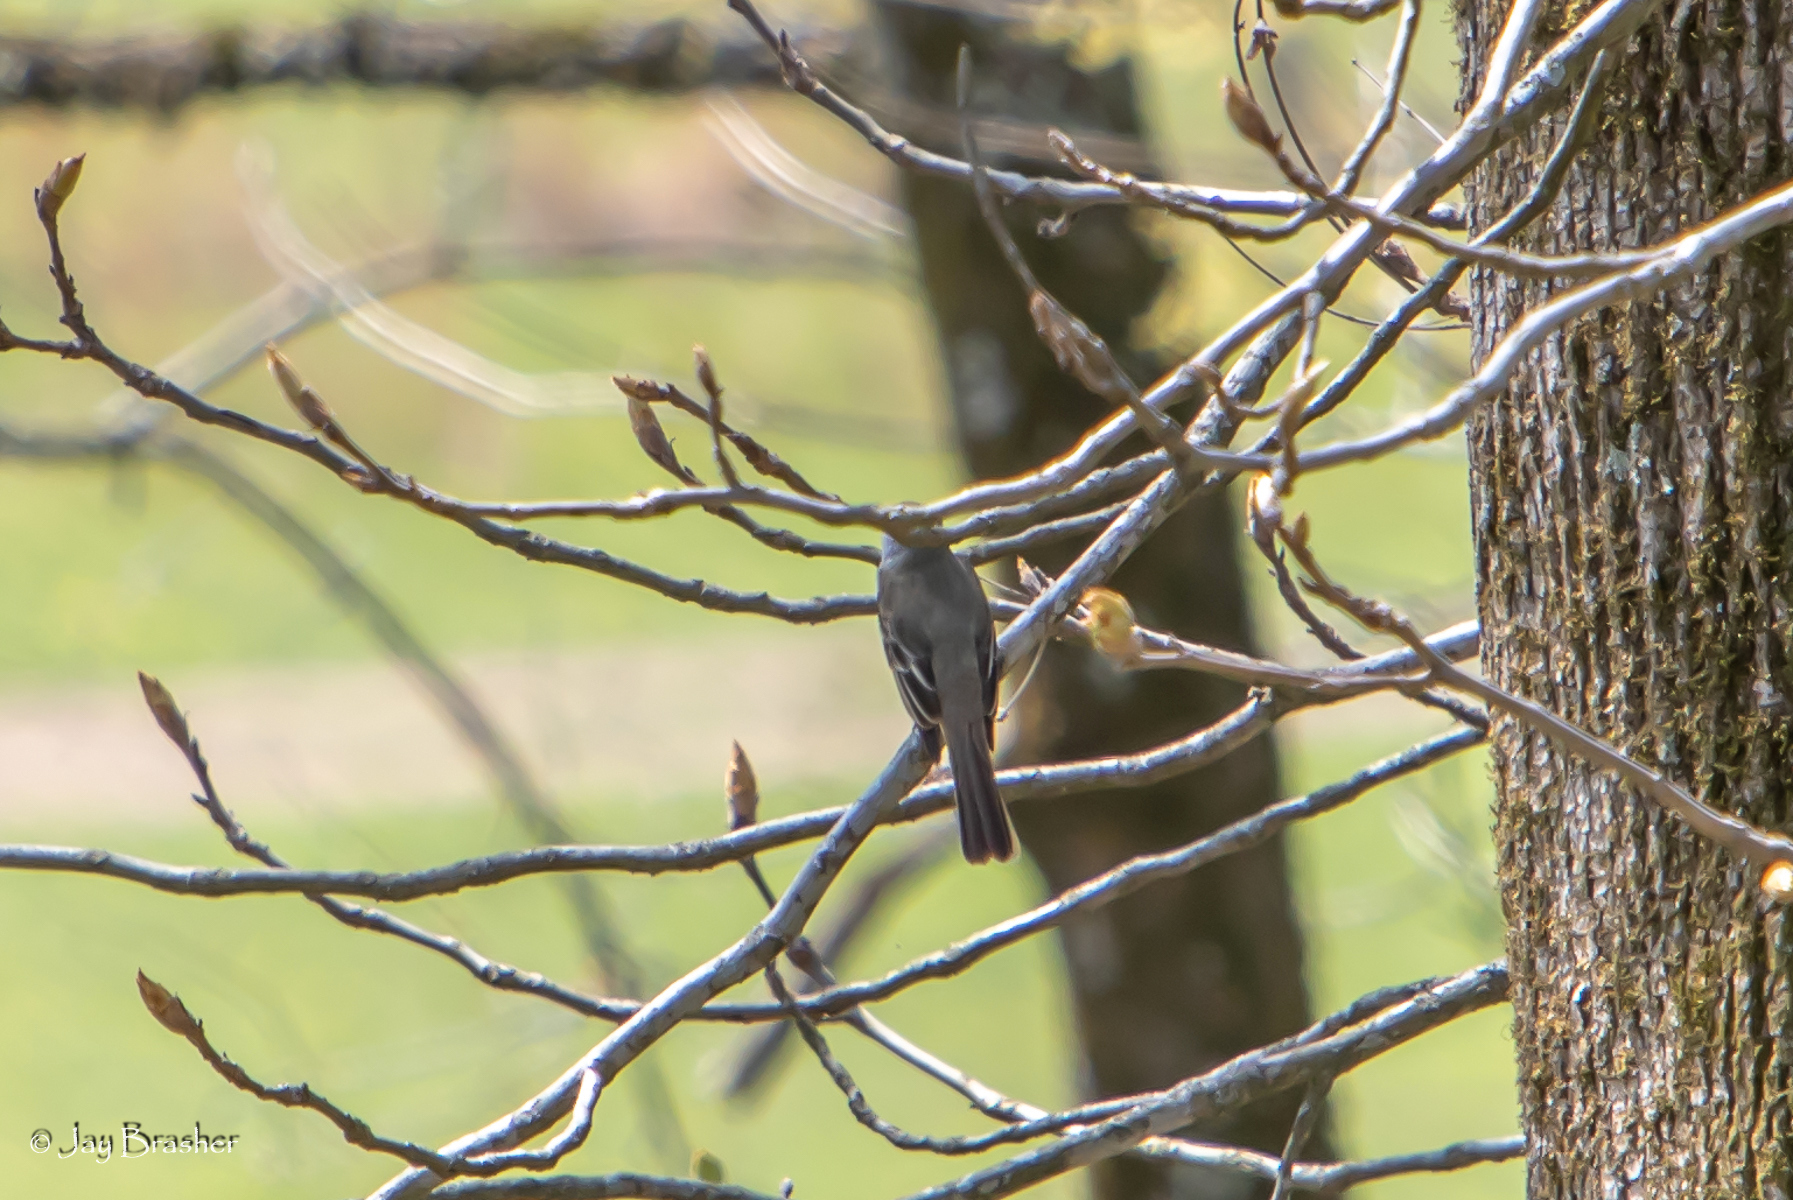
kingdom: Animalia
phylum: Chordata
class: Aves
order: Passeriformes
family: Mimidae
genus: Mimus
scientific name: Mimus polyglottos
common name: Northern mockingbird
